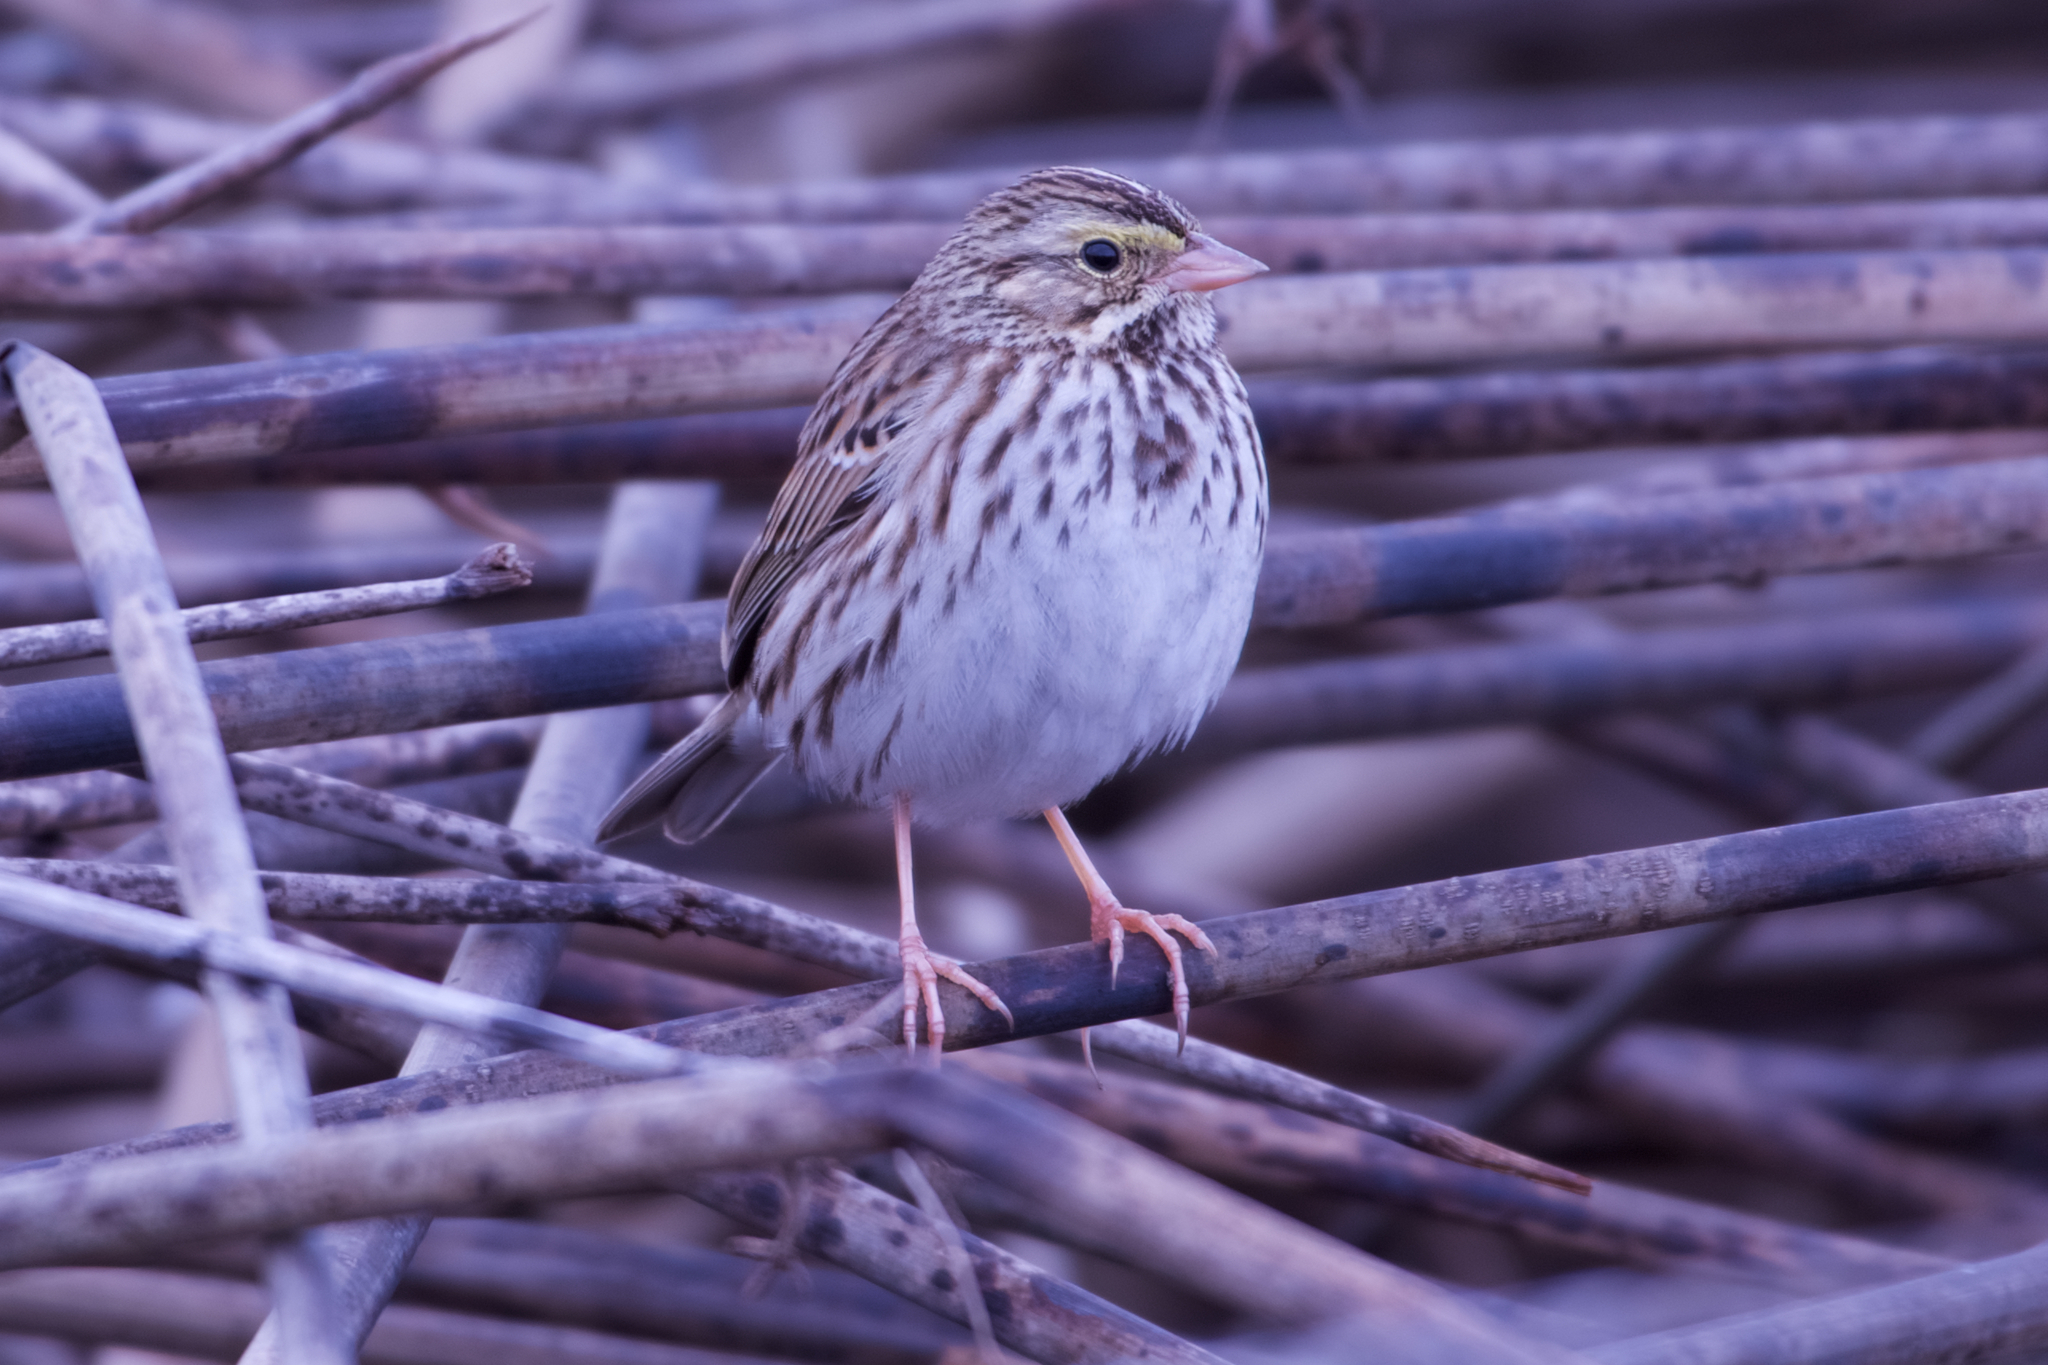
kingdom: Animalia
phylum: Chordata
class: Aves
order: Passeriformes
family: Passerellidae
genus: Passerculus
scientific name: Passerculus sandwichensis
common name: Savannah sparrow
